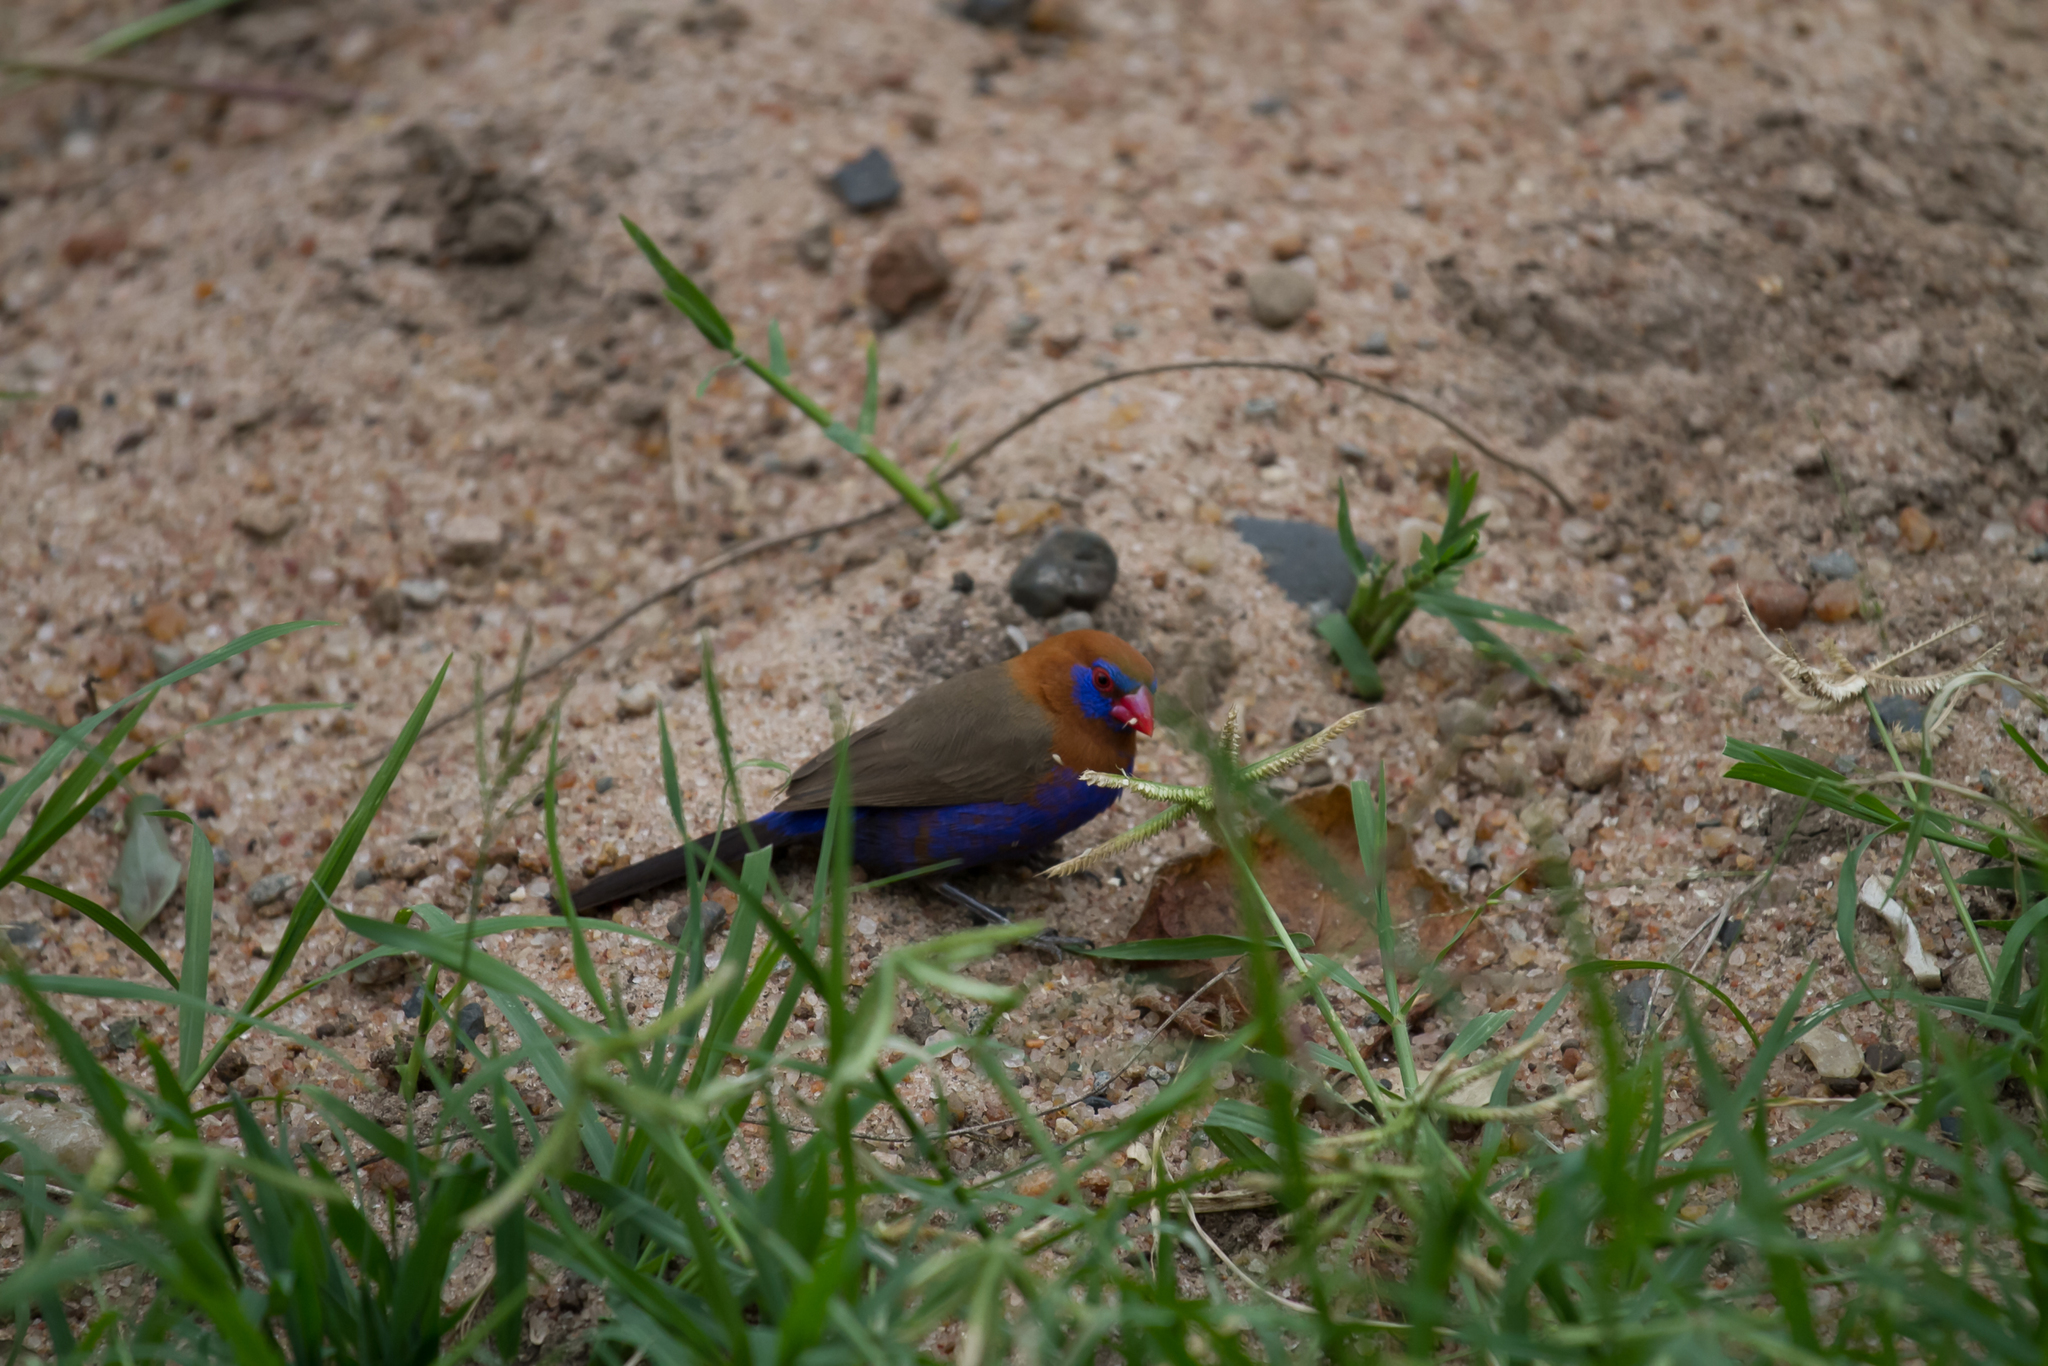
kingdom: Animalia
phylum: Chordata
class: Aves
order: Passeriformes
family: Estrildidae
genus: Uraeginthus
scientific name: Uraeginthus ianthinogaster
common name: Purple grenadier
